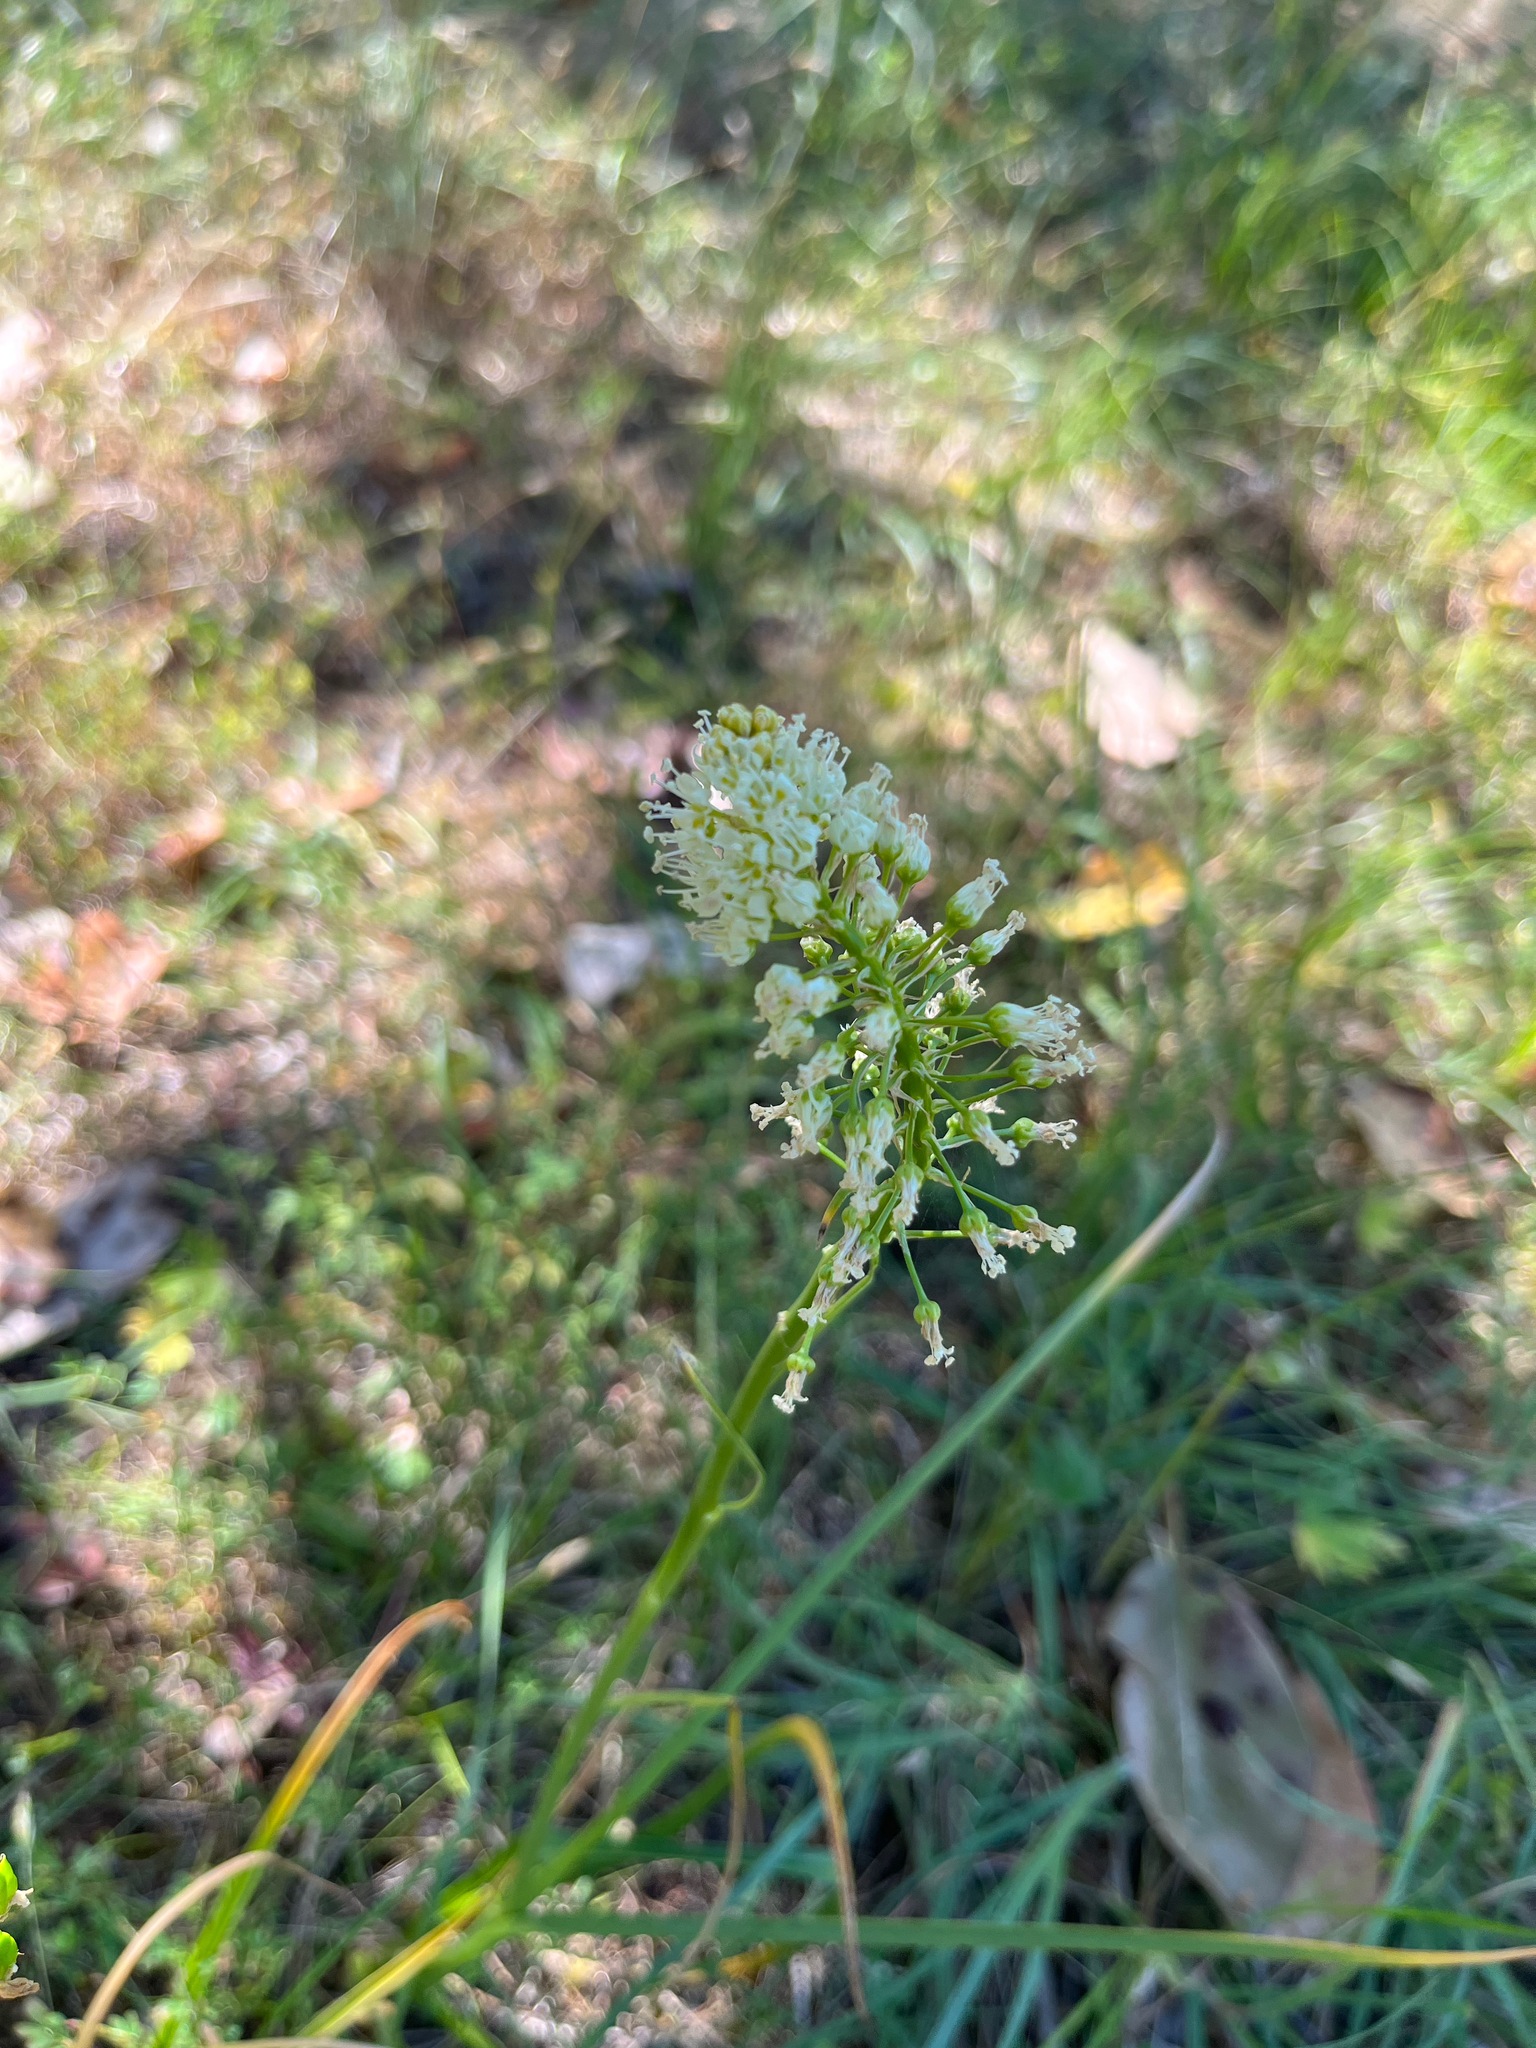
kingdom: Plantae
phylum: Tracheophyta
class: Liliopsida
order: Liliales
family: Melanthiaceae
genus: Toxicoscordion
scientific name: Toxicoscordion venenosum
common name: Meadow death camas
